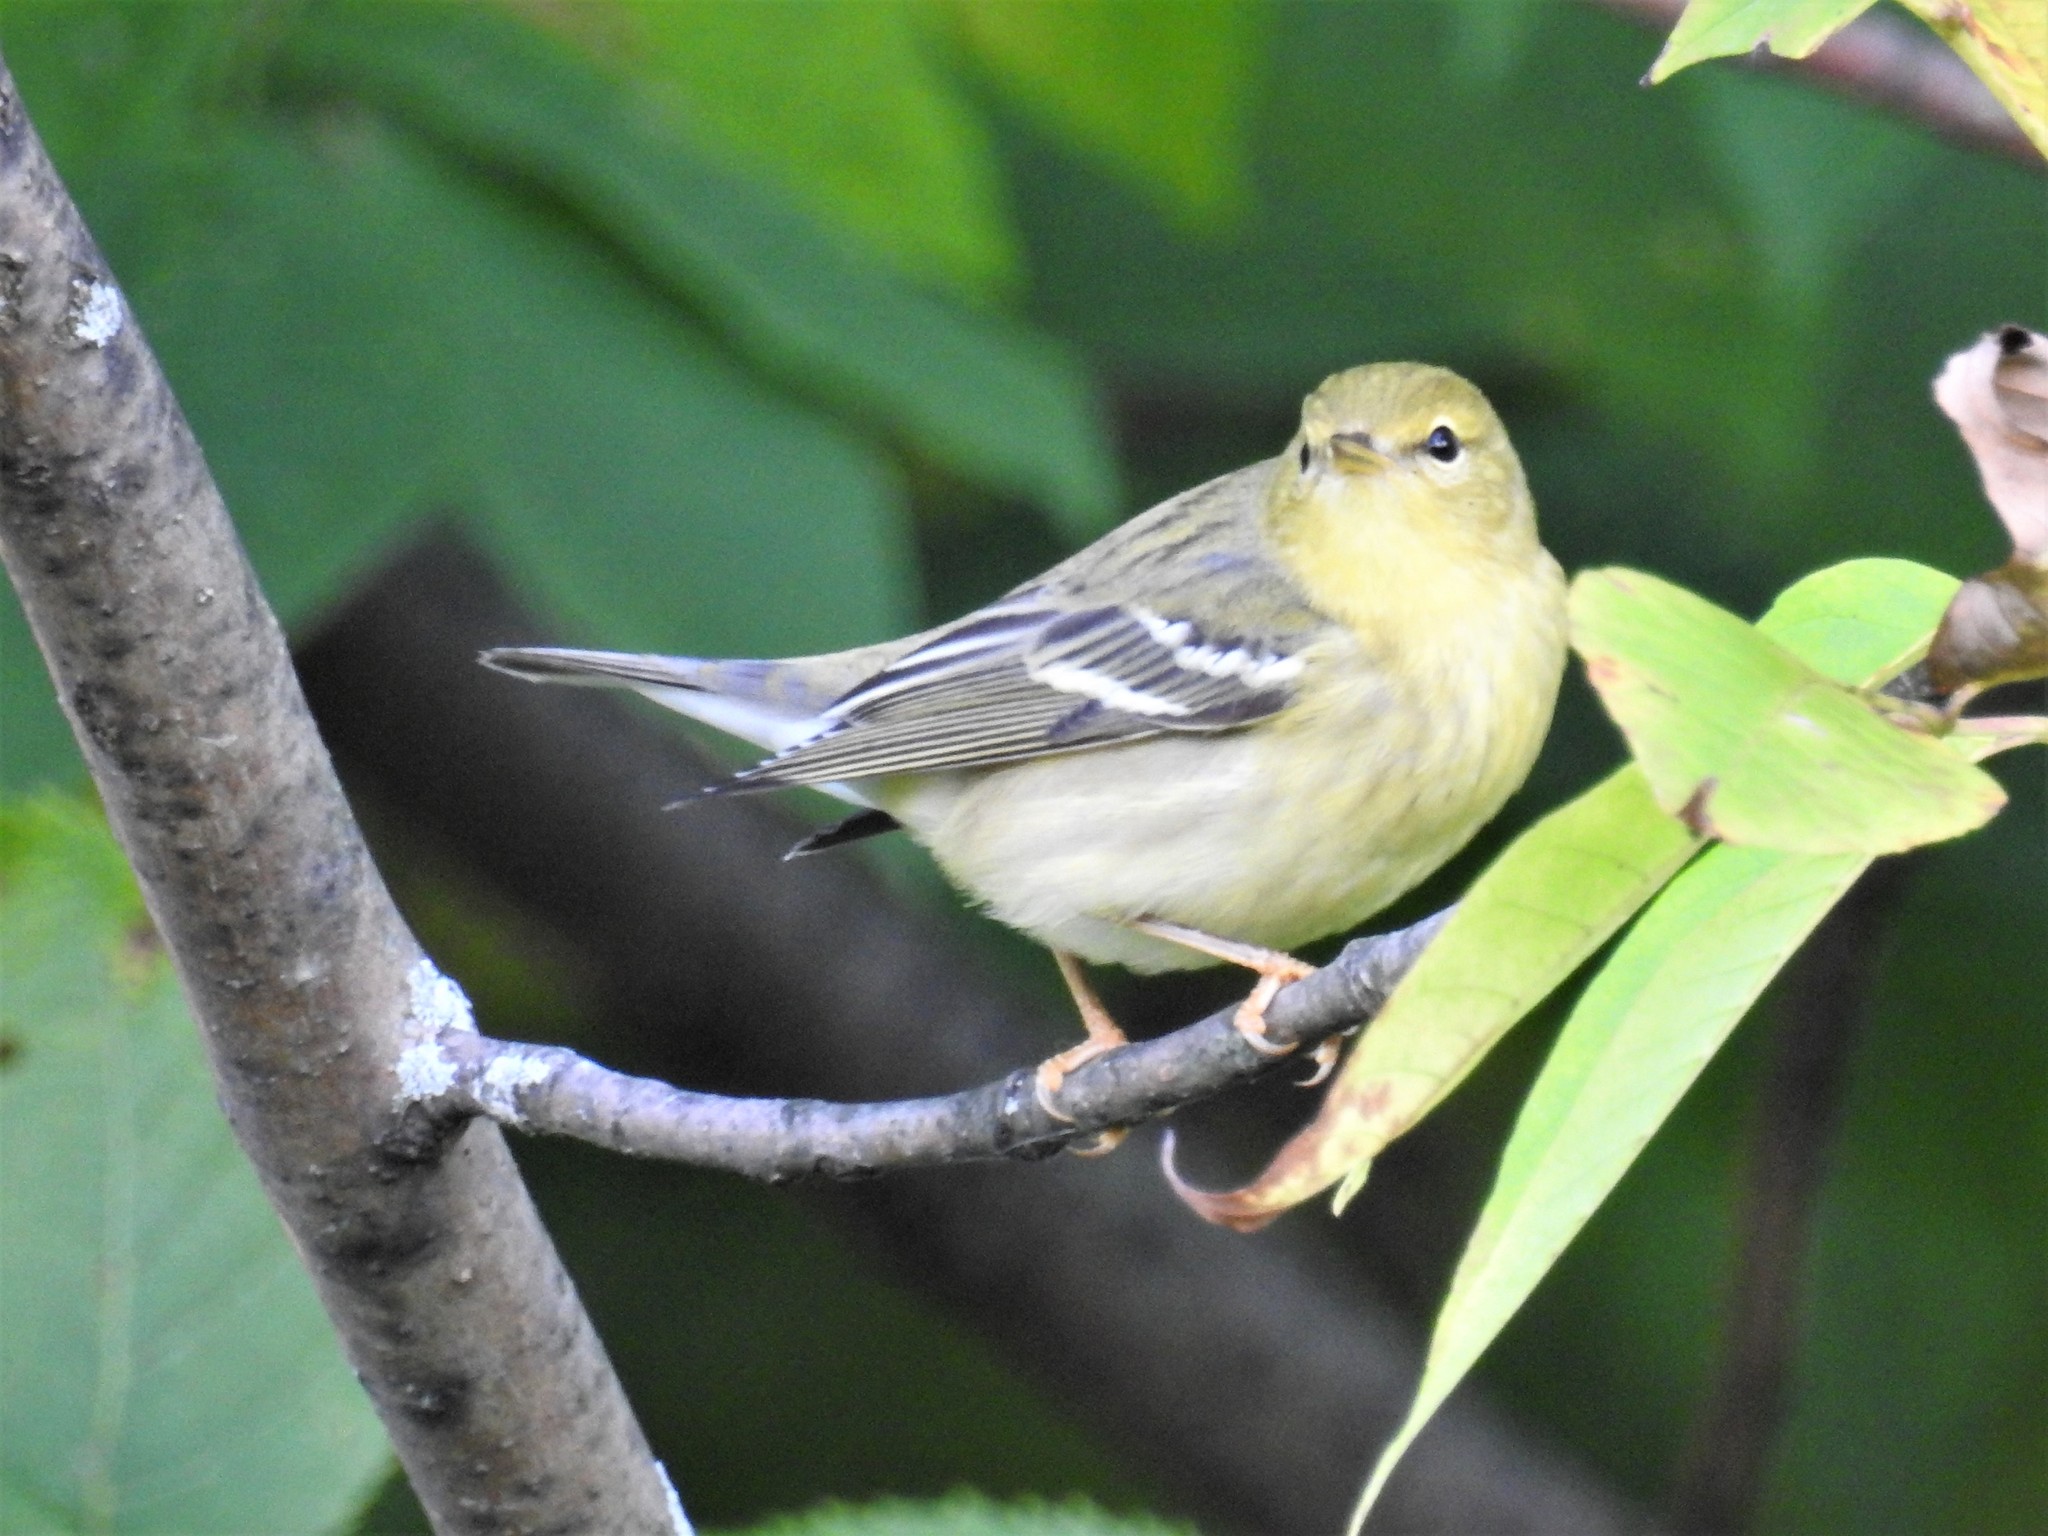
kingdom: Animalia
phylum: Chordata
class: Aves
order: Passeriformes
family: Parulidae
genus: Setophaga
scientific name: Setophaga striata
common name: Blackpoll warbler
